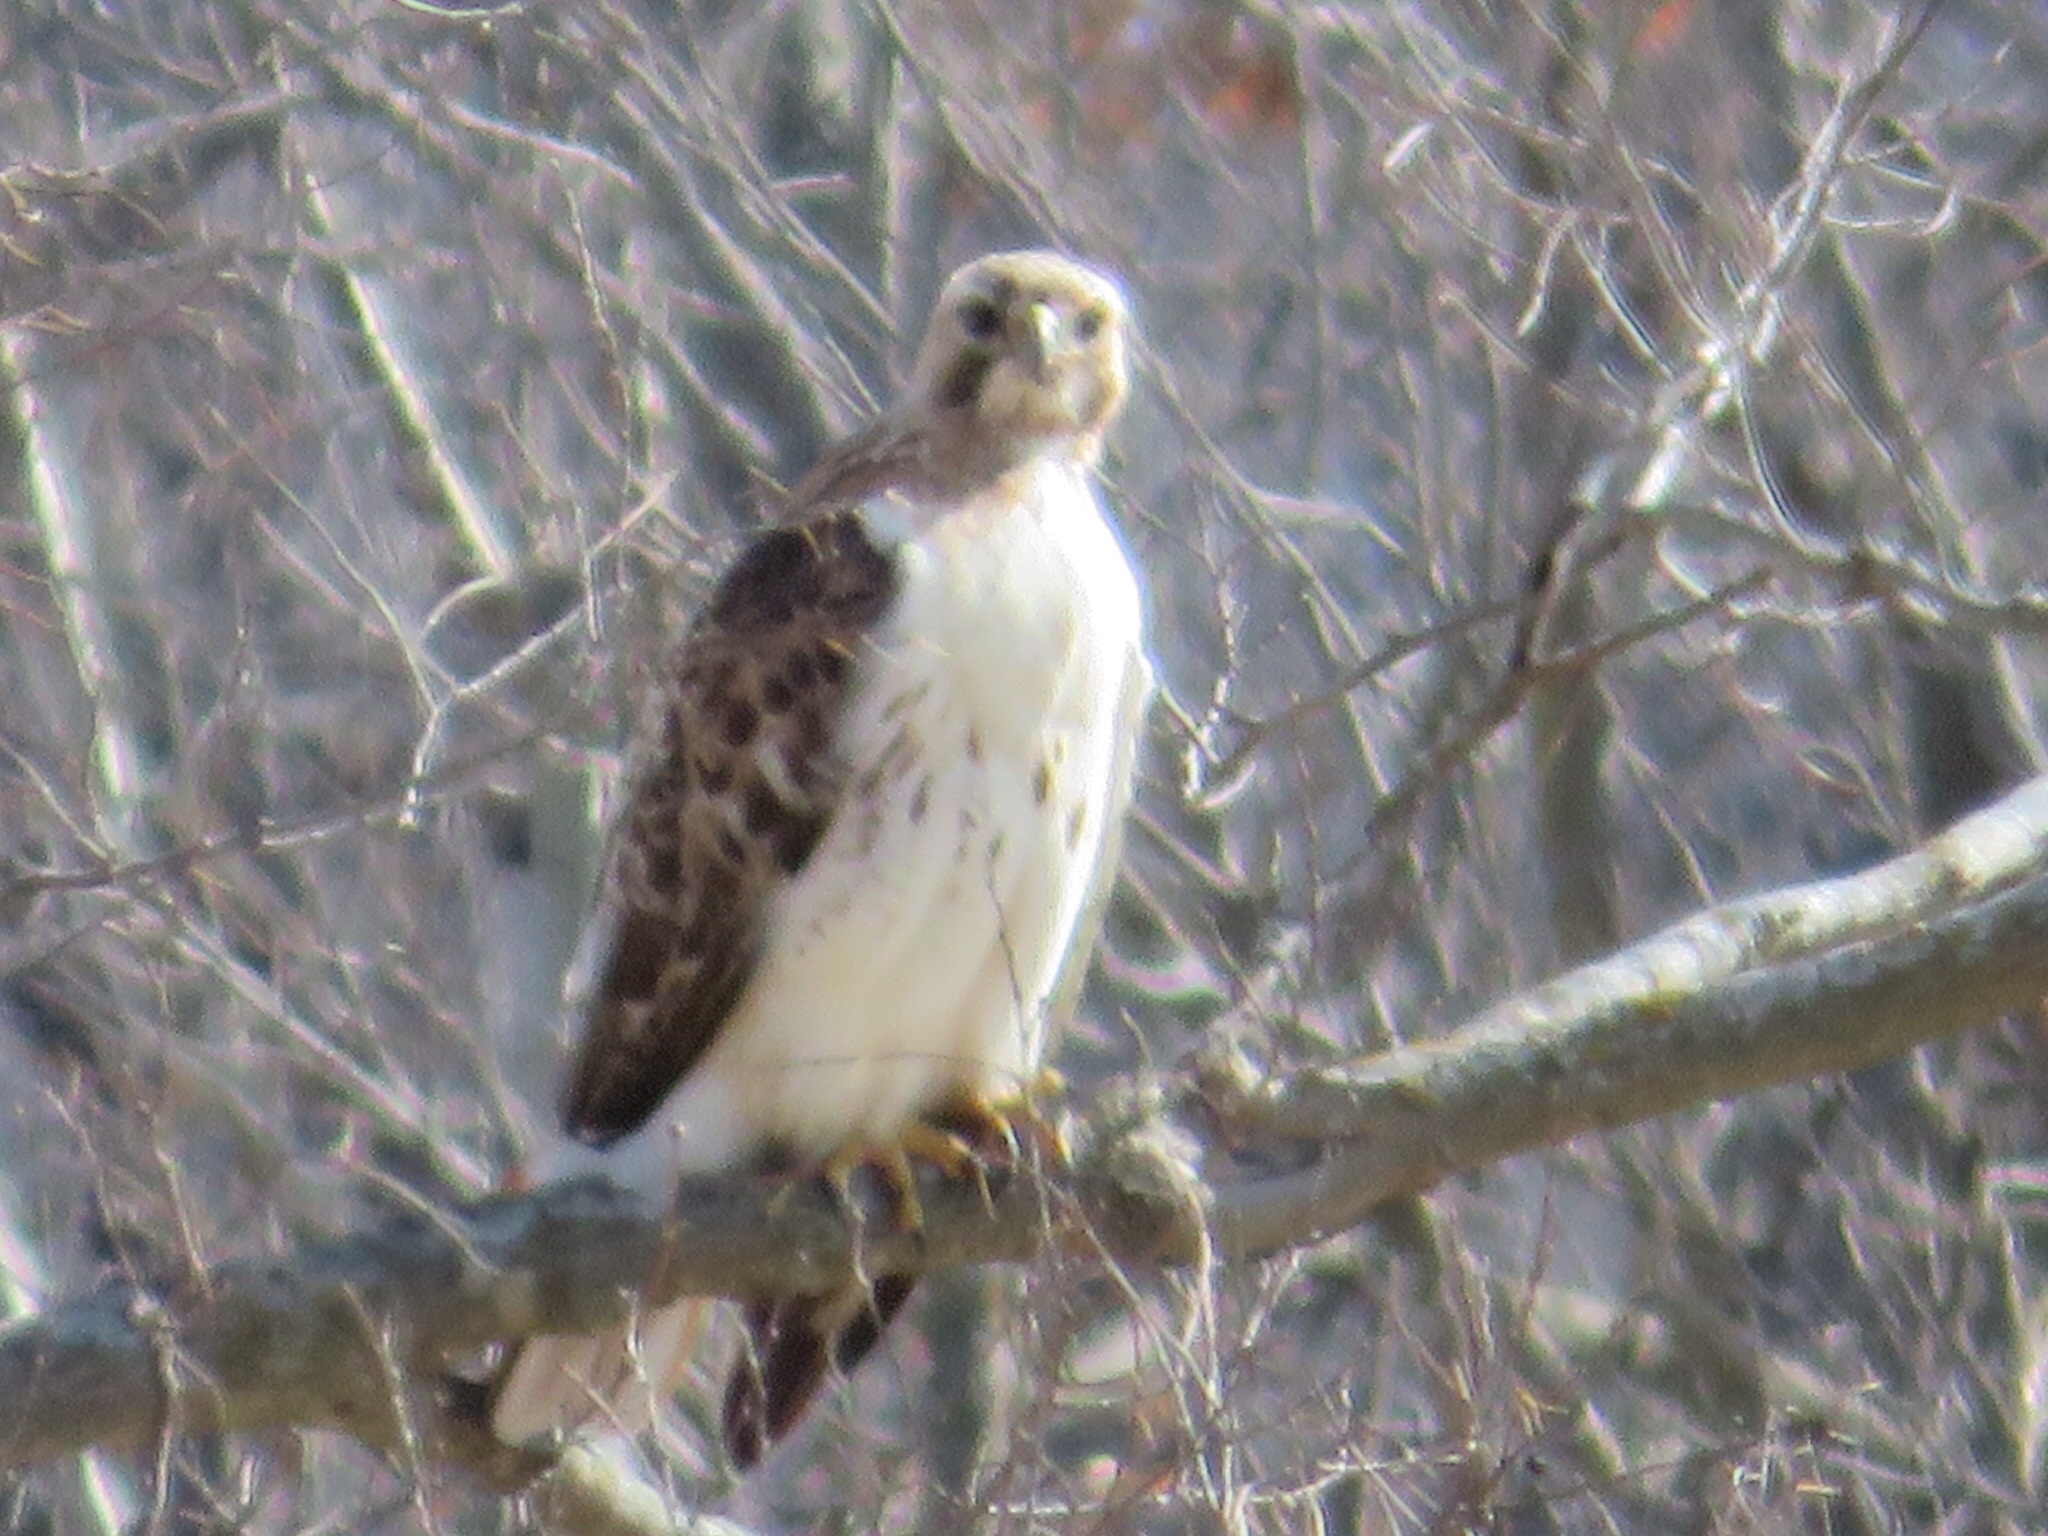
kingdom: Animalia
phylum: Chordata
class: Aves
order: Accipitriformes
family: Accipitridae
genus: Buteo
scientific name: Buteo jamaicensis
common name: Red-tailed hawk
